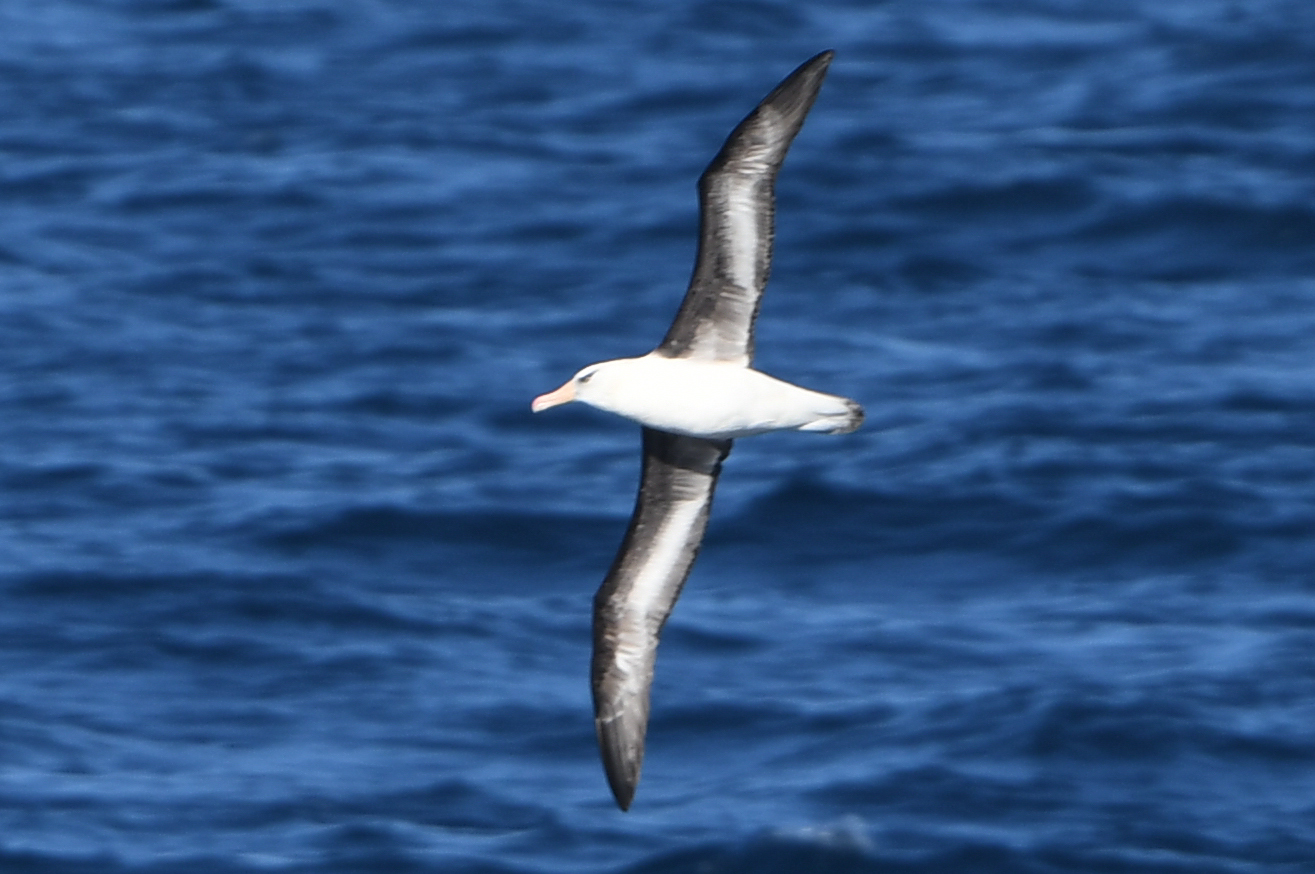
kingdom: Animalia
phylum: Chordata
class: Aves
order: Procellariiformes
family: Diomedeidae
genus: Thalassarche
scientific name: Thalassarche impavida
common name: Campbell albatross
